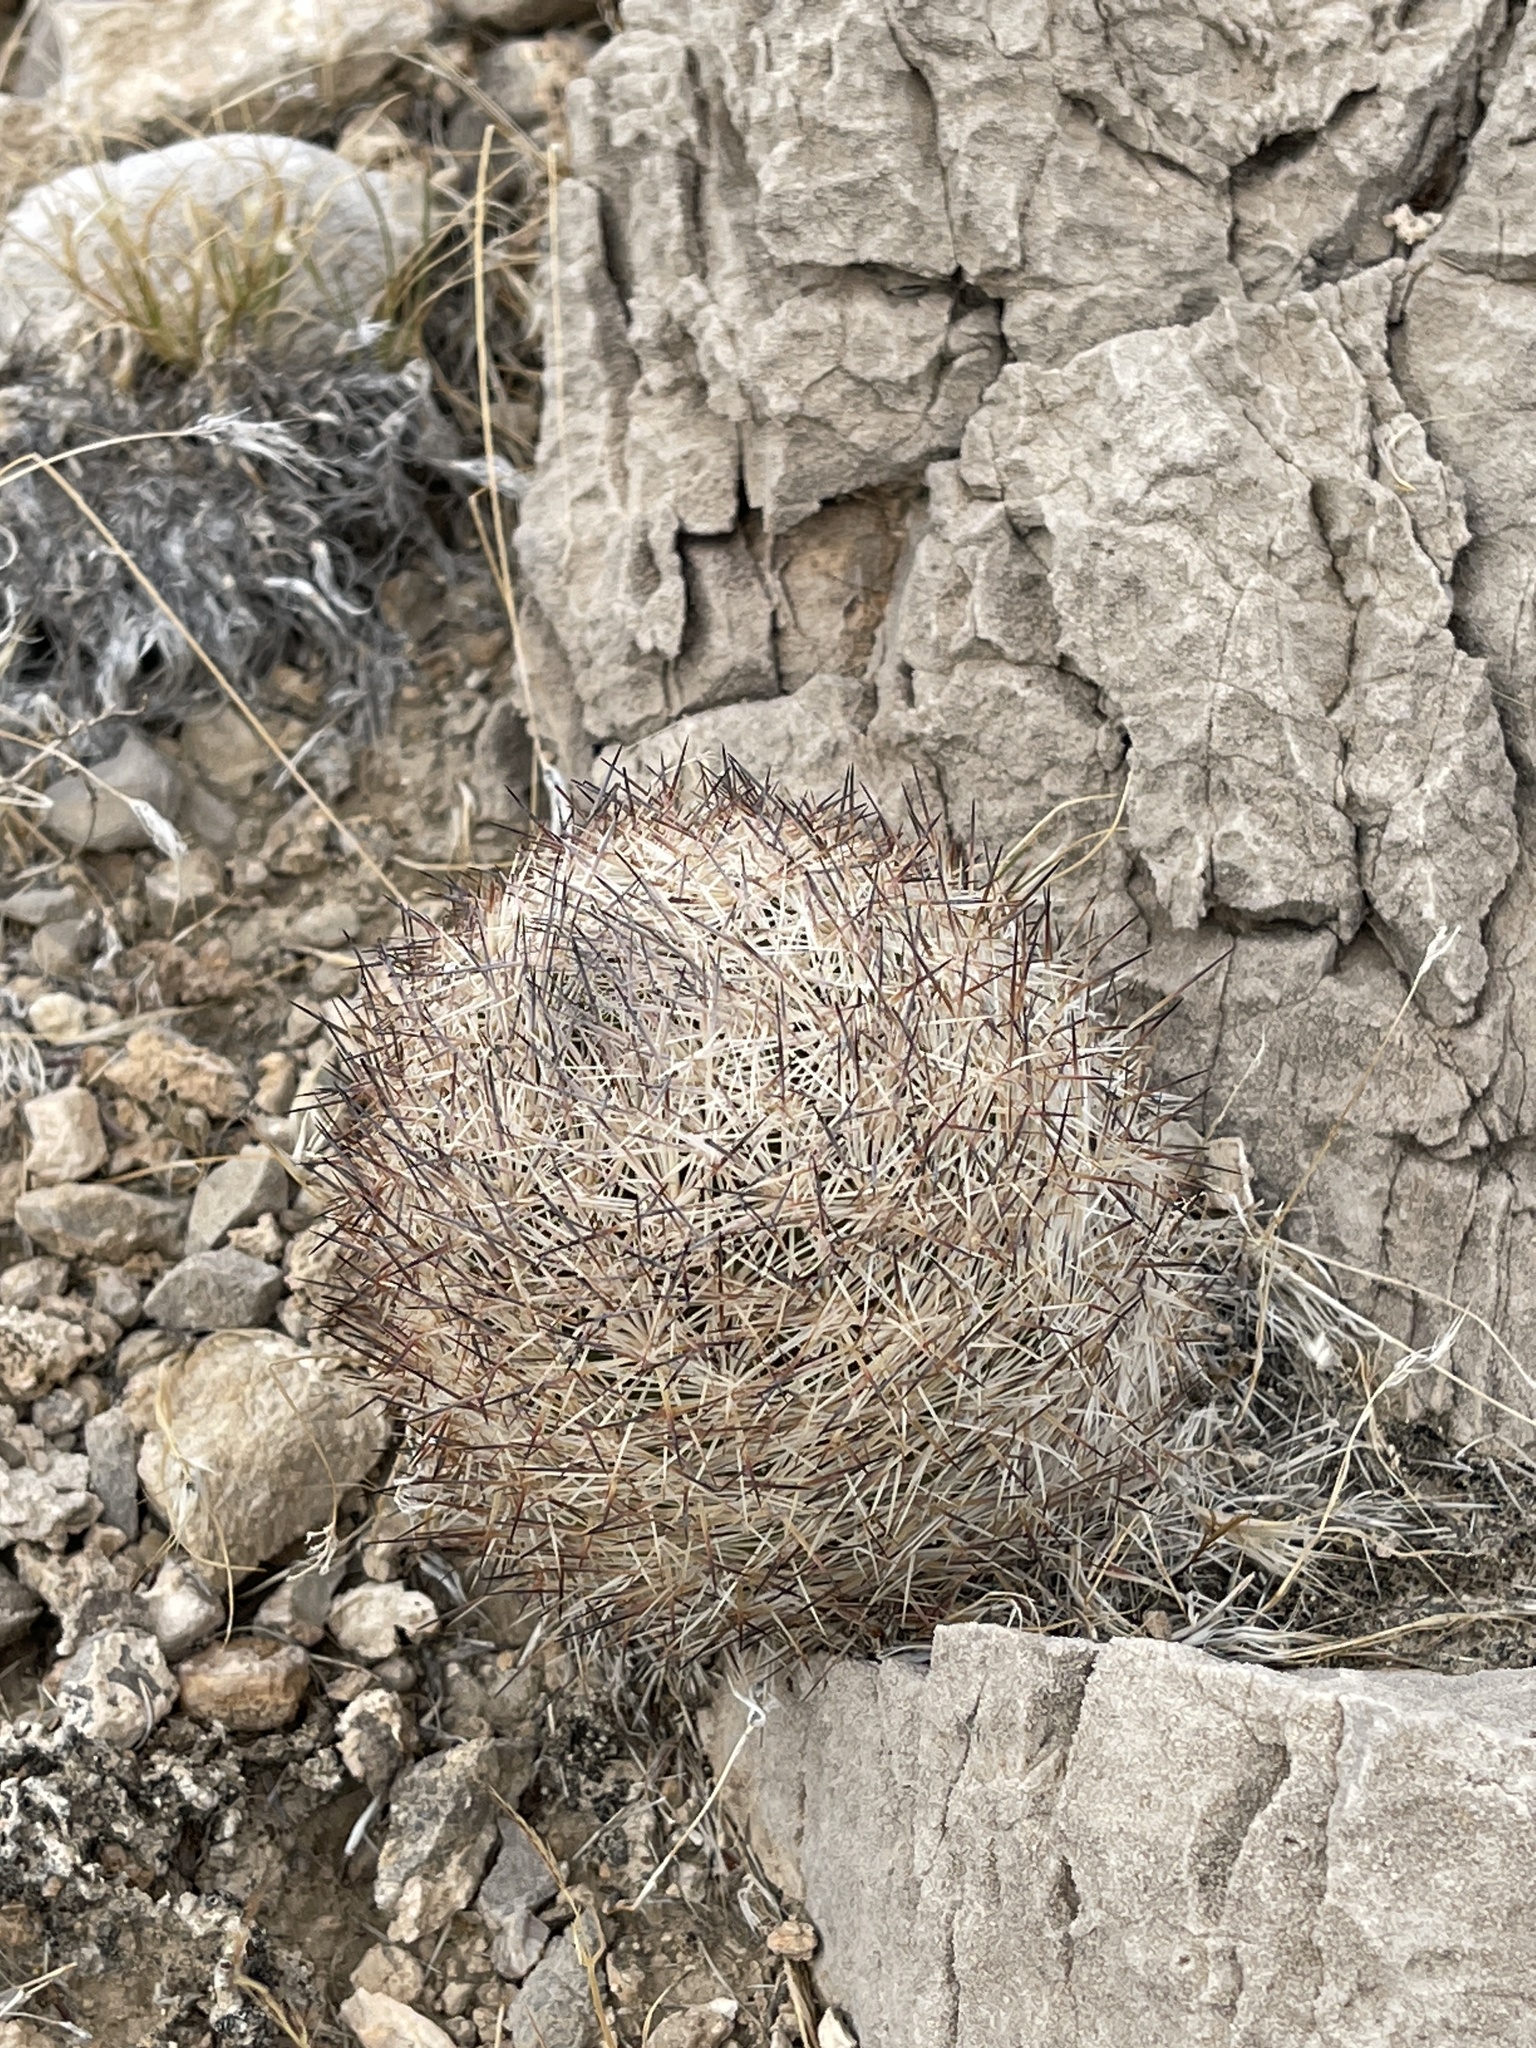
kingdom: Plantae
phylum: Tracheophyta
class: Magnoliopsida
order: Caryophyllales
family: Cactaceae
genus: Pelecyphora
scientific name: Pelecyphora dasyacantha
